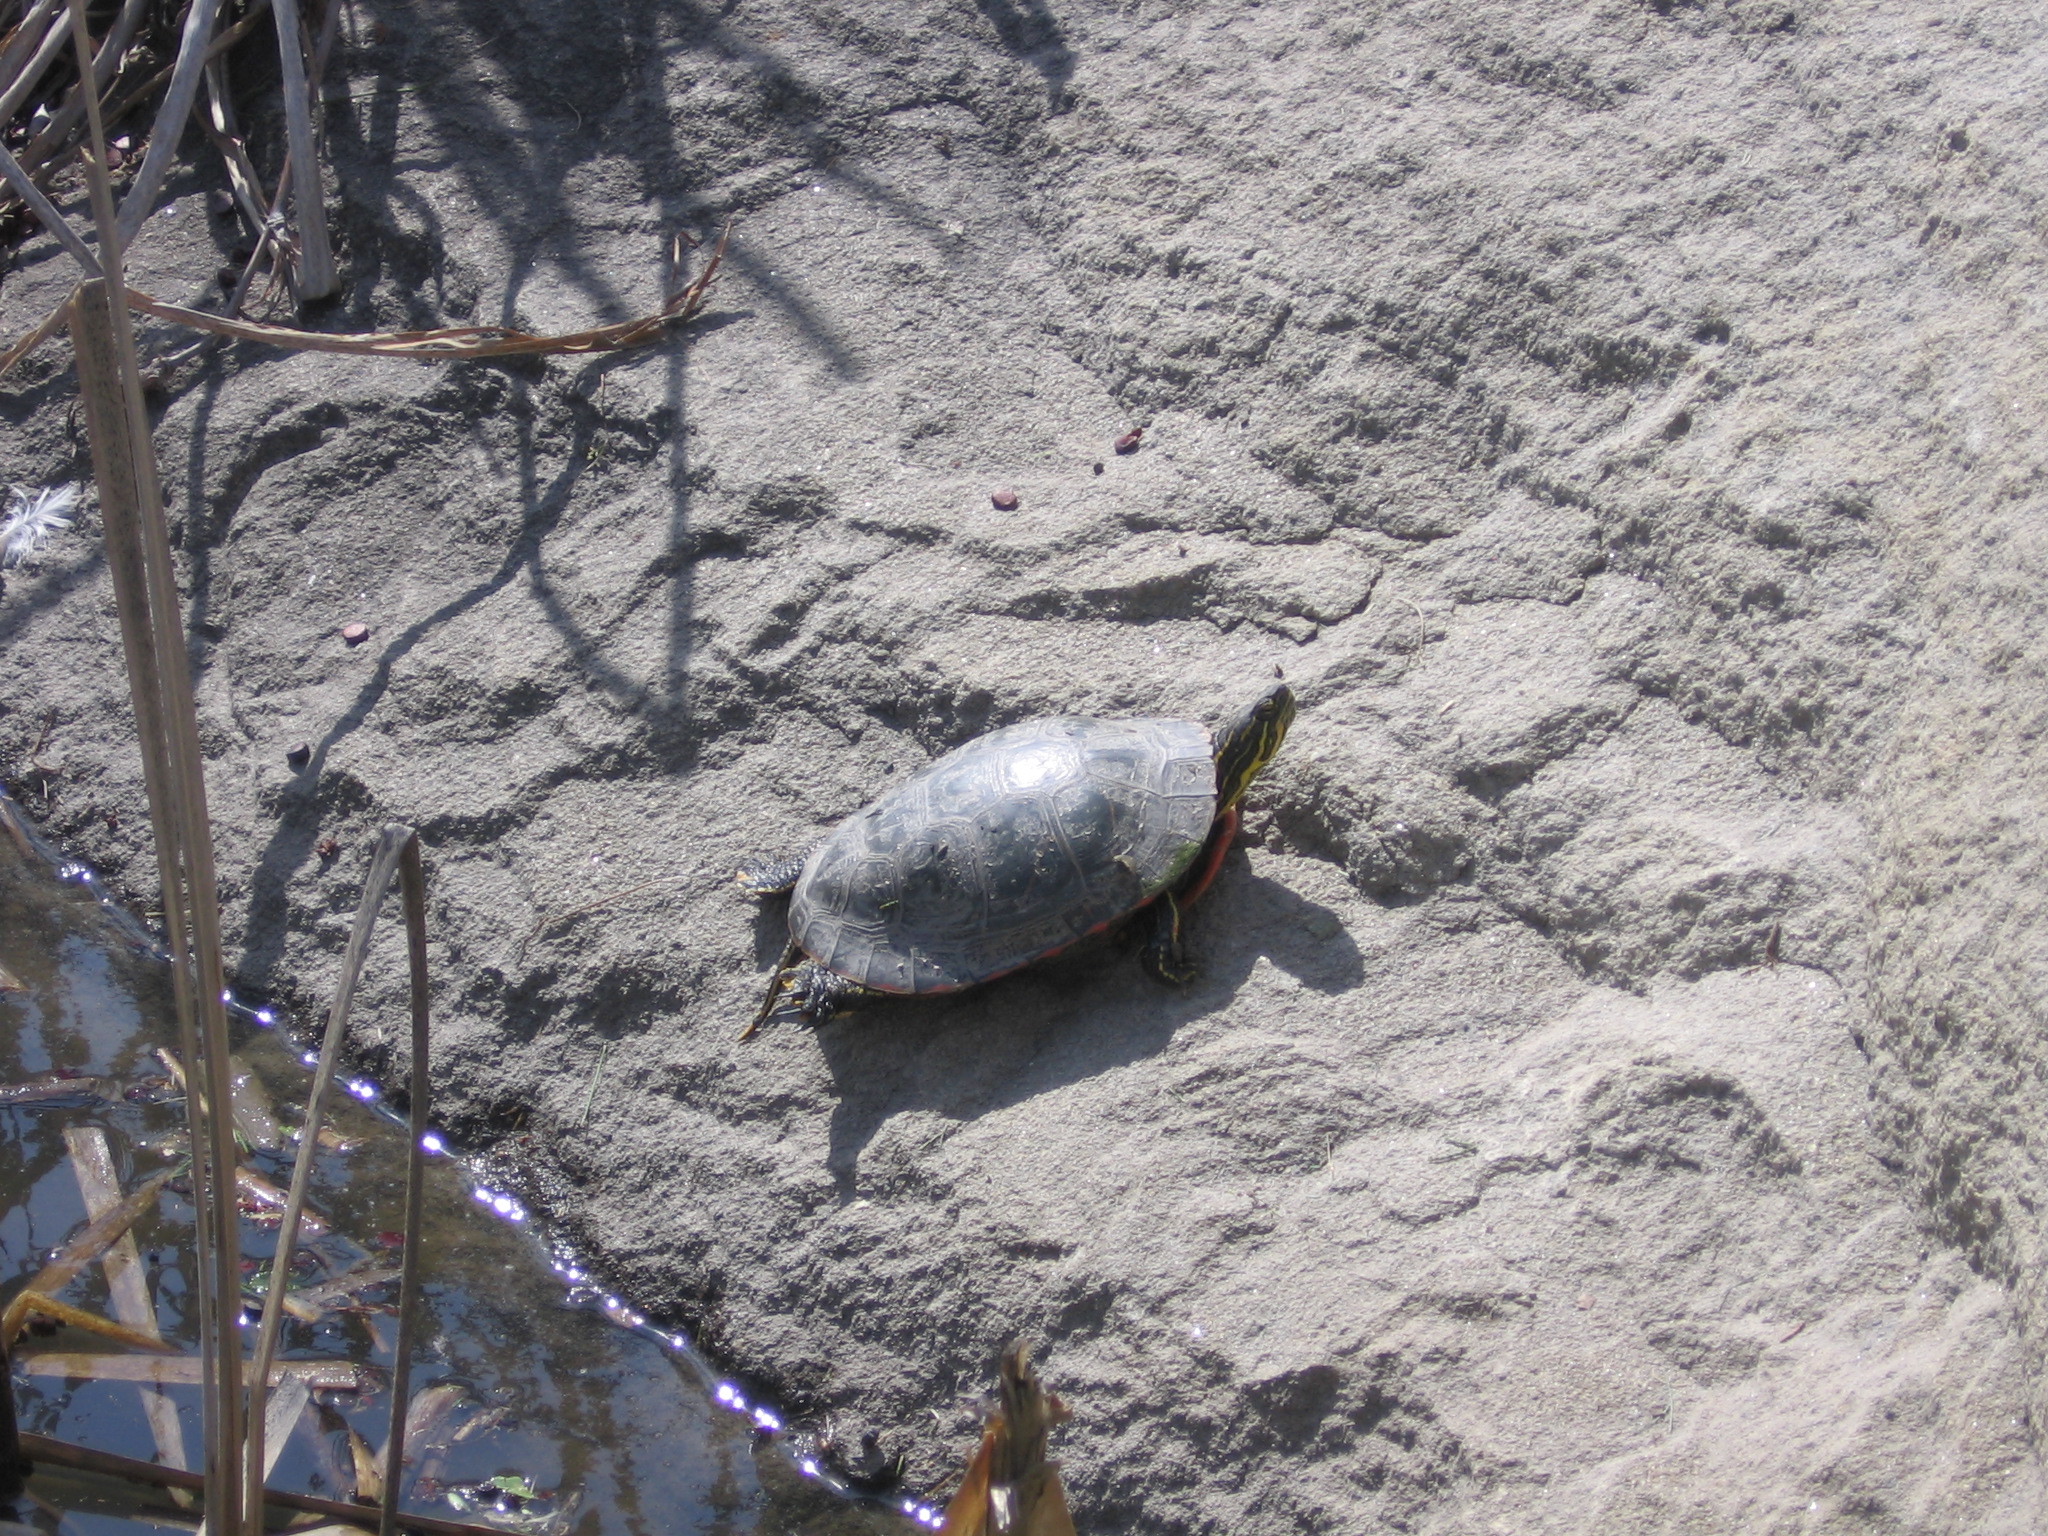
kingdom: Animalia
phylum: Chordata
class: Testudines
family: Emydidae
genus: Chrysemys
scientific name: Chrysemys picta
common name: Painted turtle
